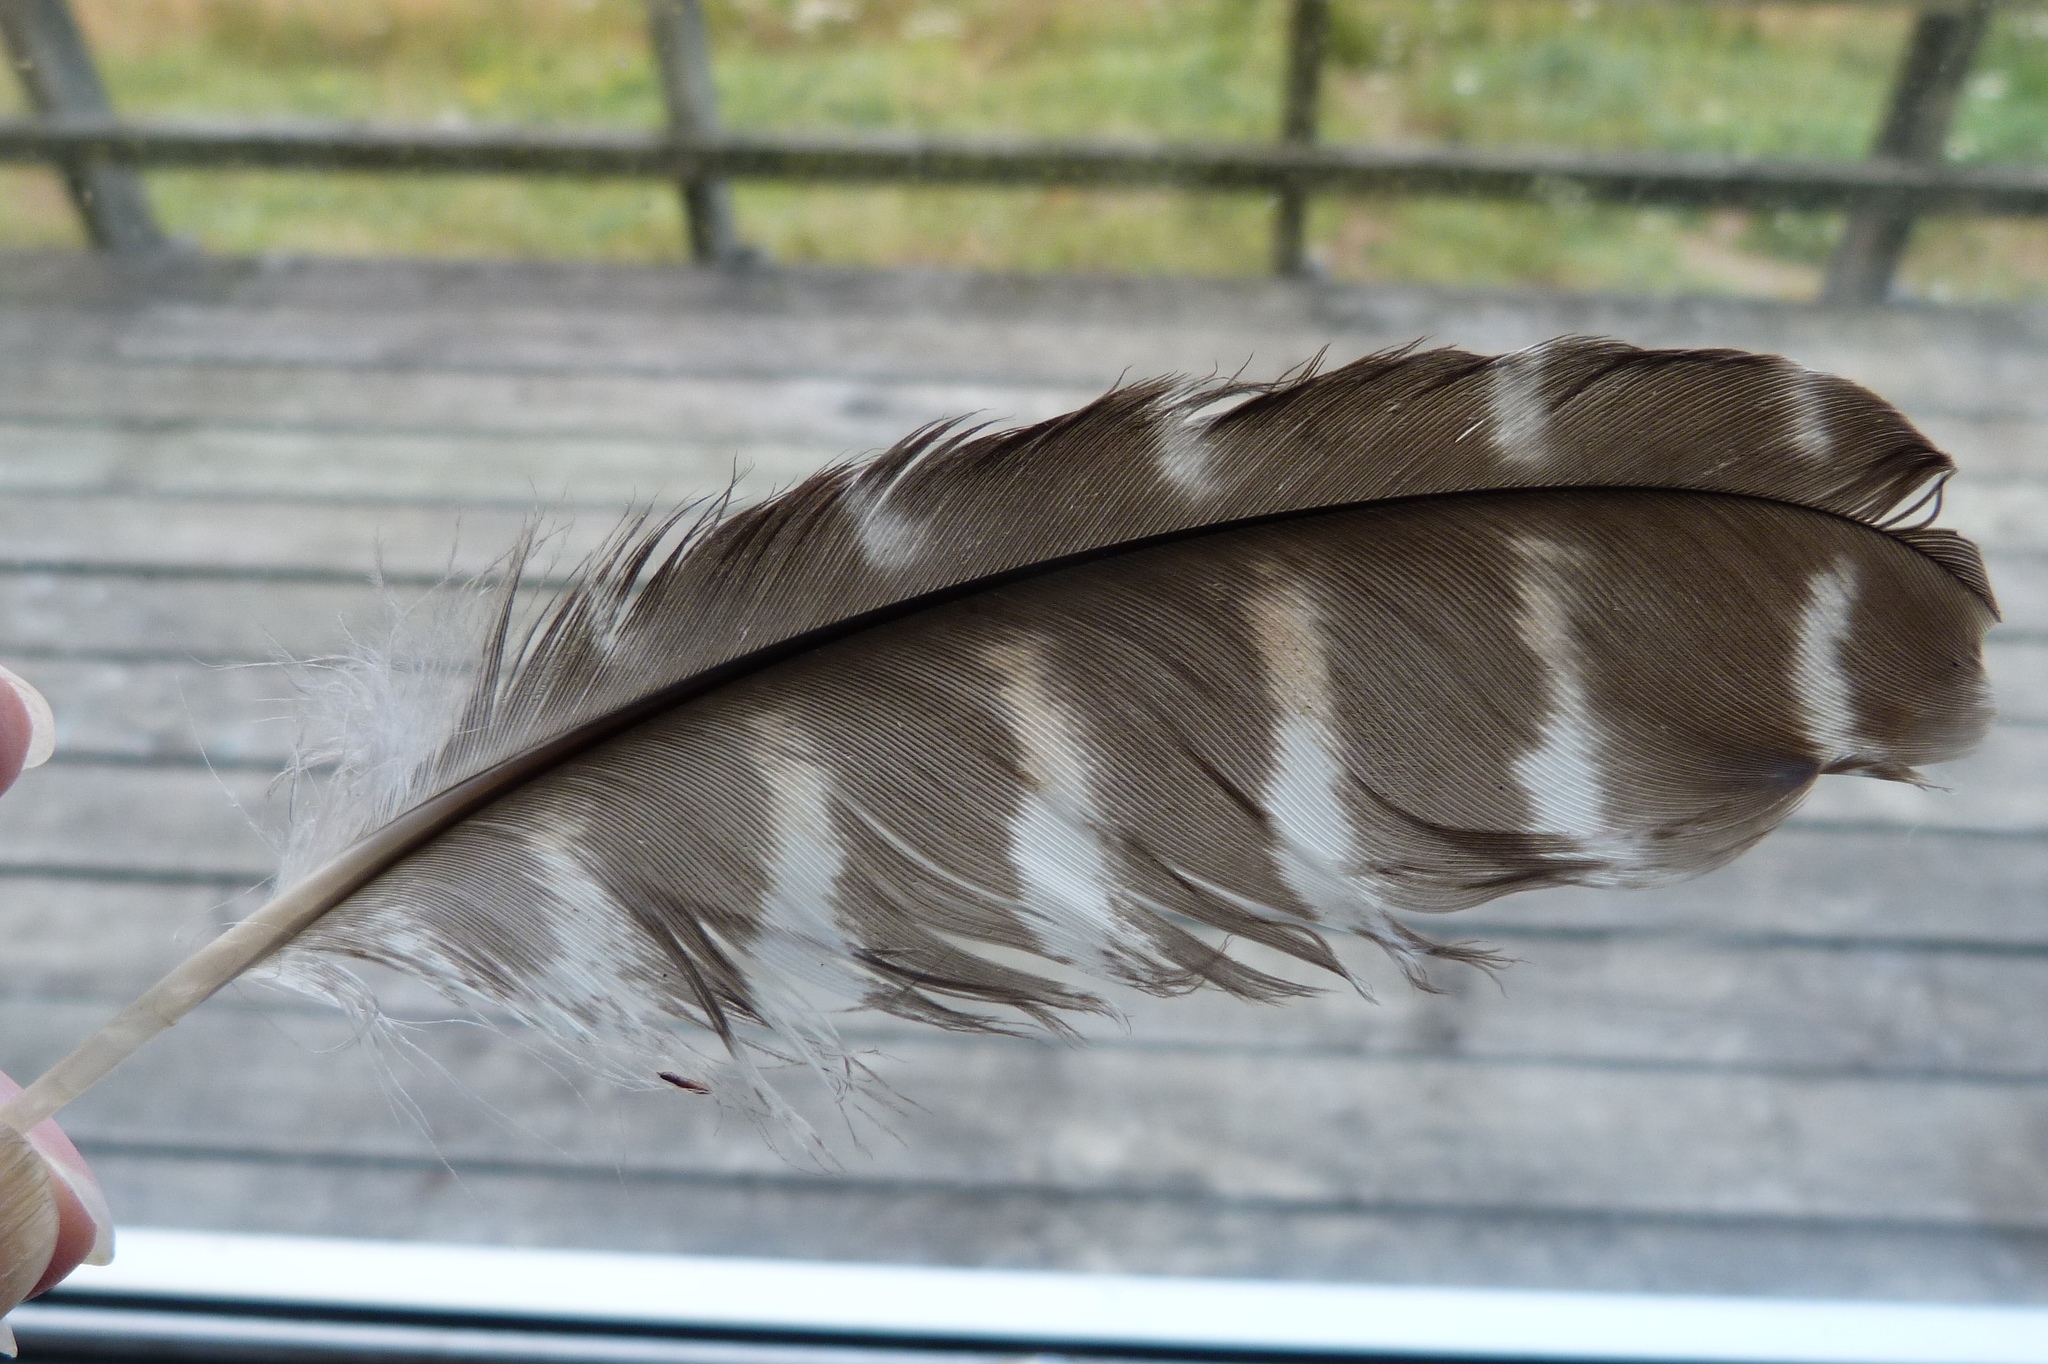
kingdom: Animalia
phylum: Chordata
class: Aves
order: Falconiformes
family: Falconidae
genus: Falco
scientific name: Falco novaeseelandiae
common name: New zealand falcon
